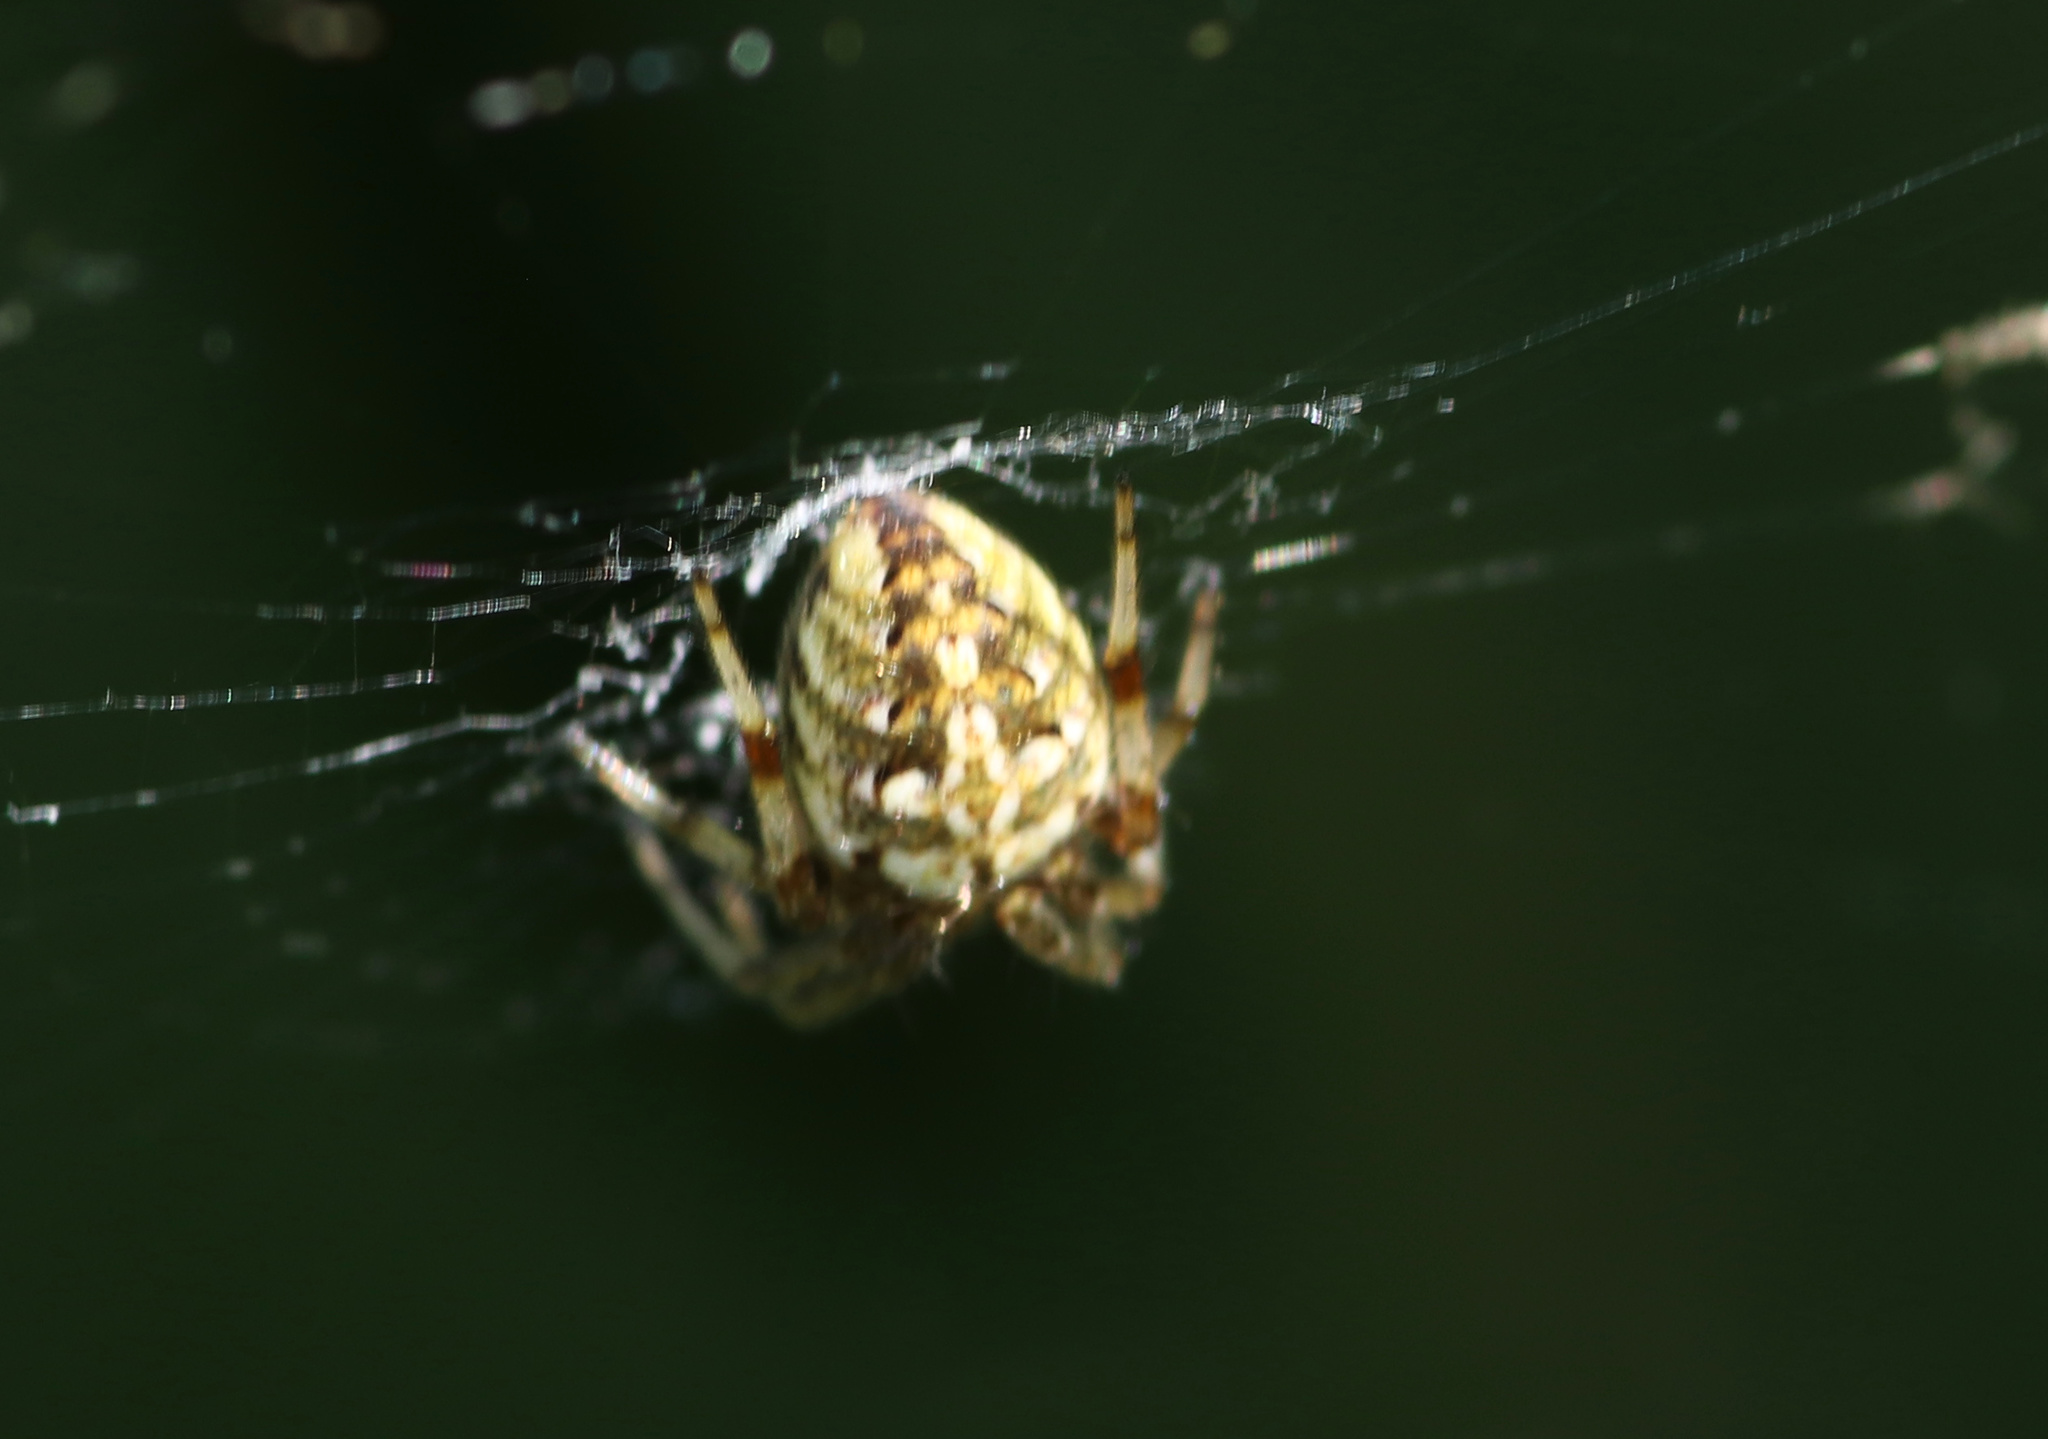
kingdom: Animalia
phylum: Arthropoda
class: Arachnida
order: Araneae
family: Araneidae
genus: Neoscona
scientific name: Neoscona arabesca
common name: Orb weavers
